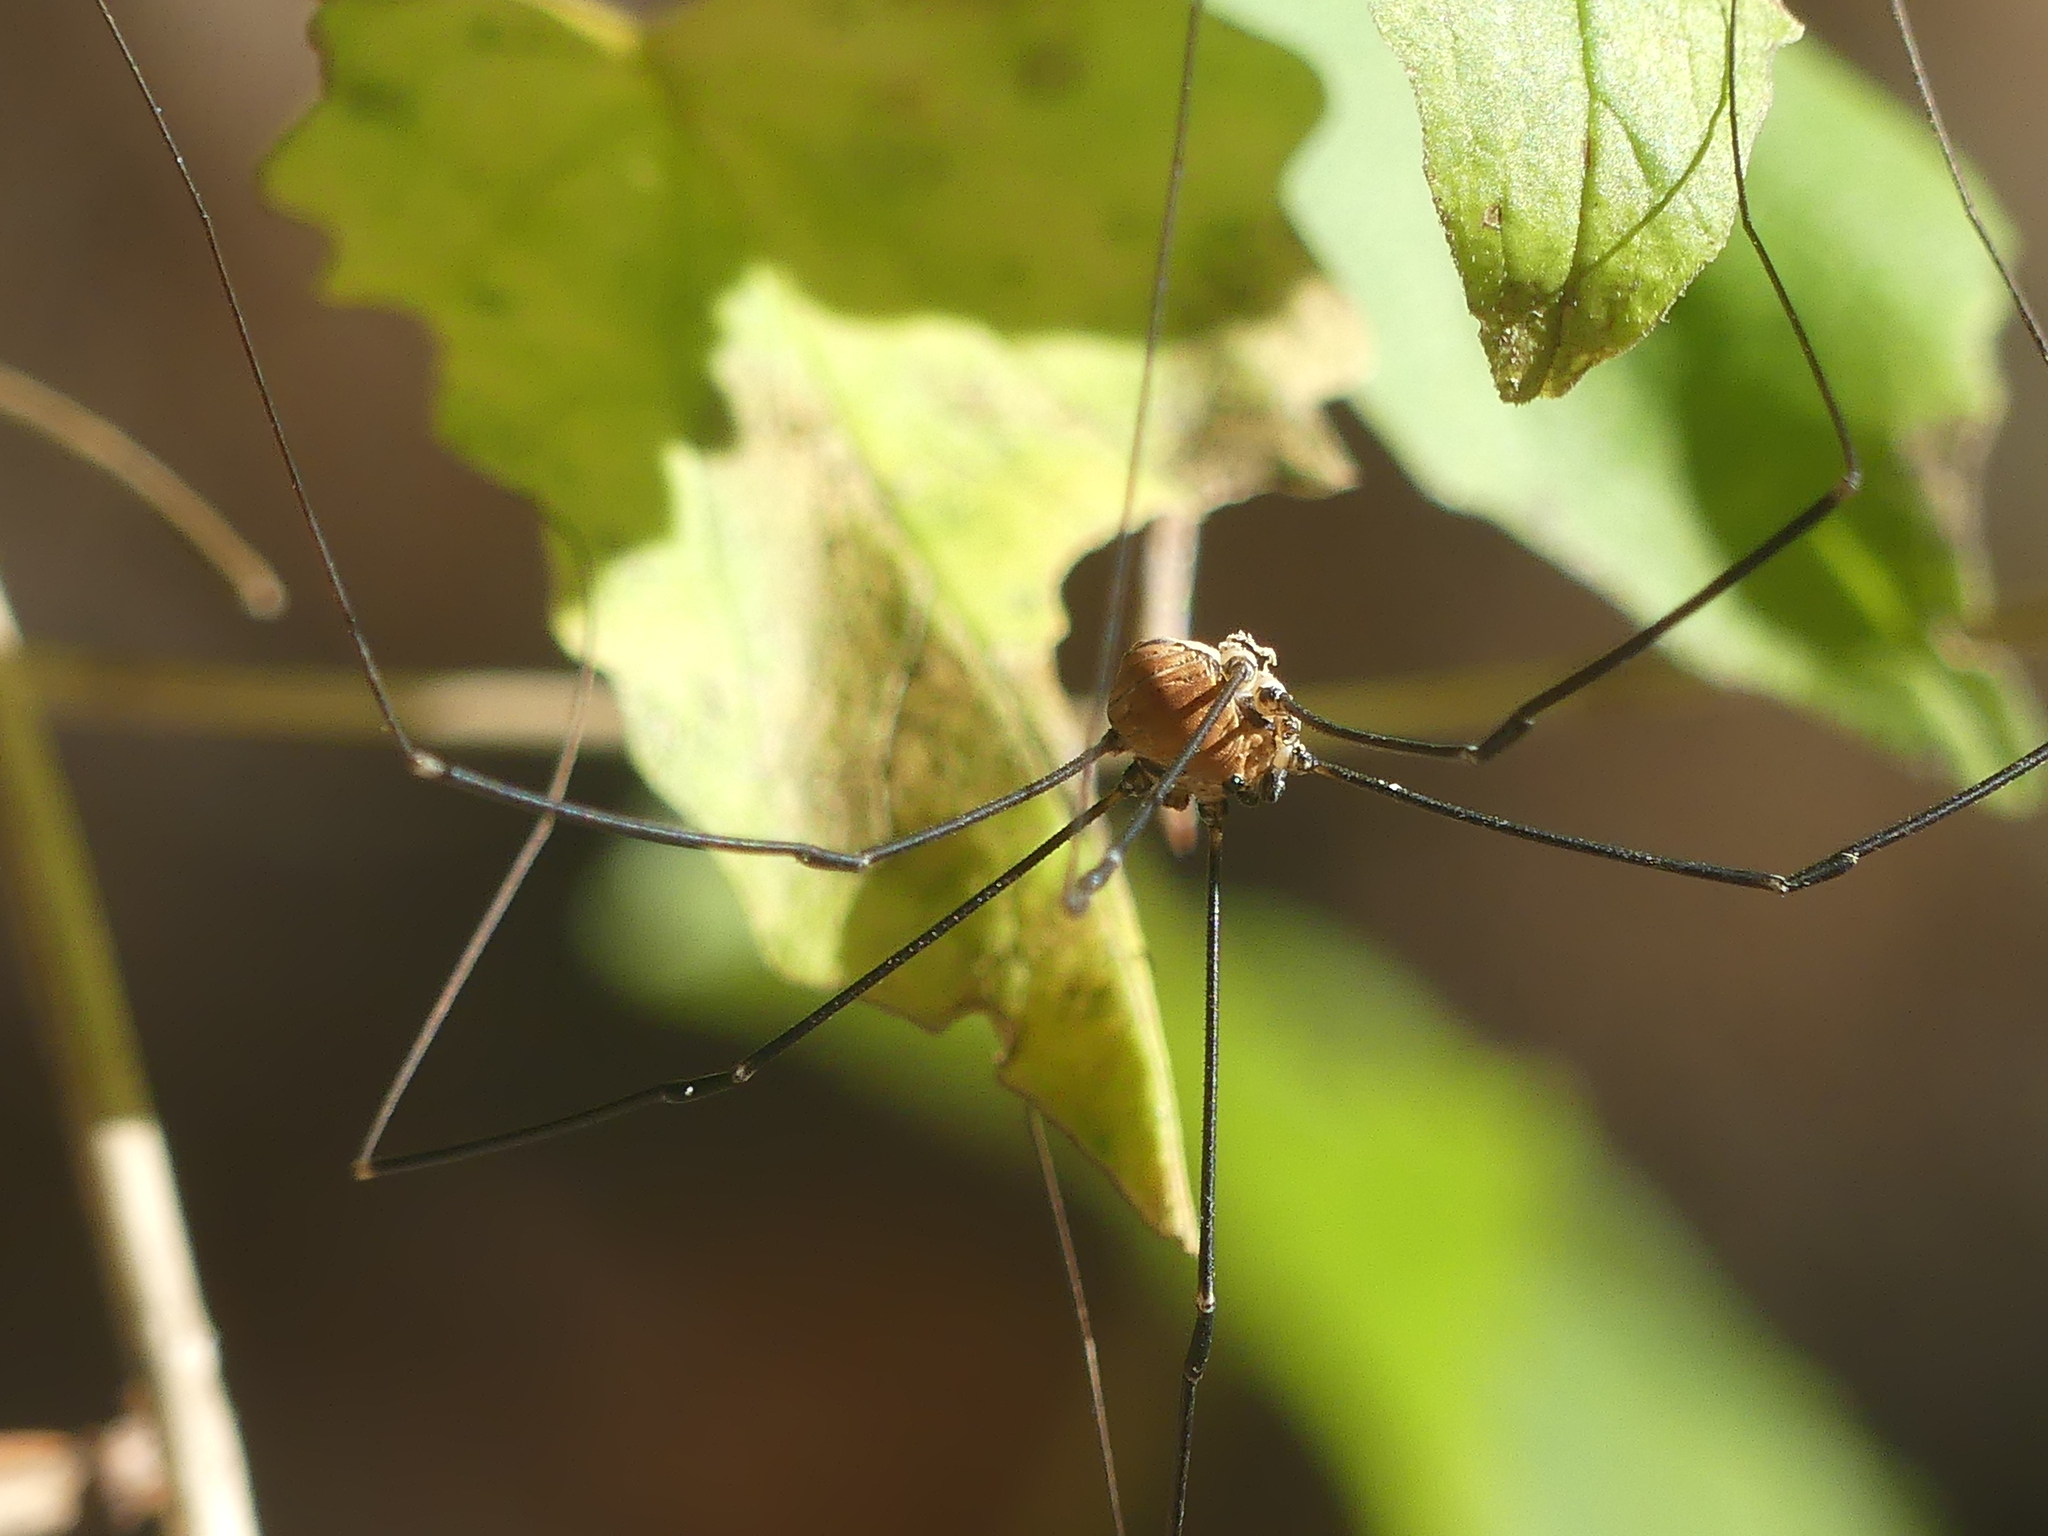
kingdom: Animalia
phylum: Arthropoda
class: Arachnida
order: Opiliones
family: Sclerosomatidae
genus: Leiobunum
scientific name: Leiobunum limbatum
